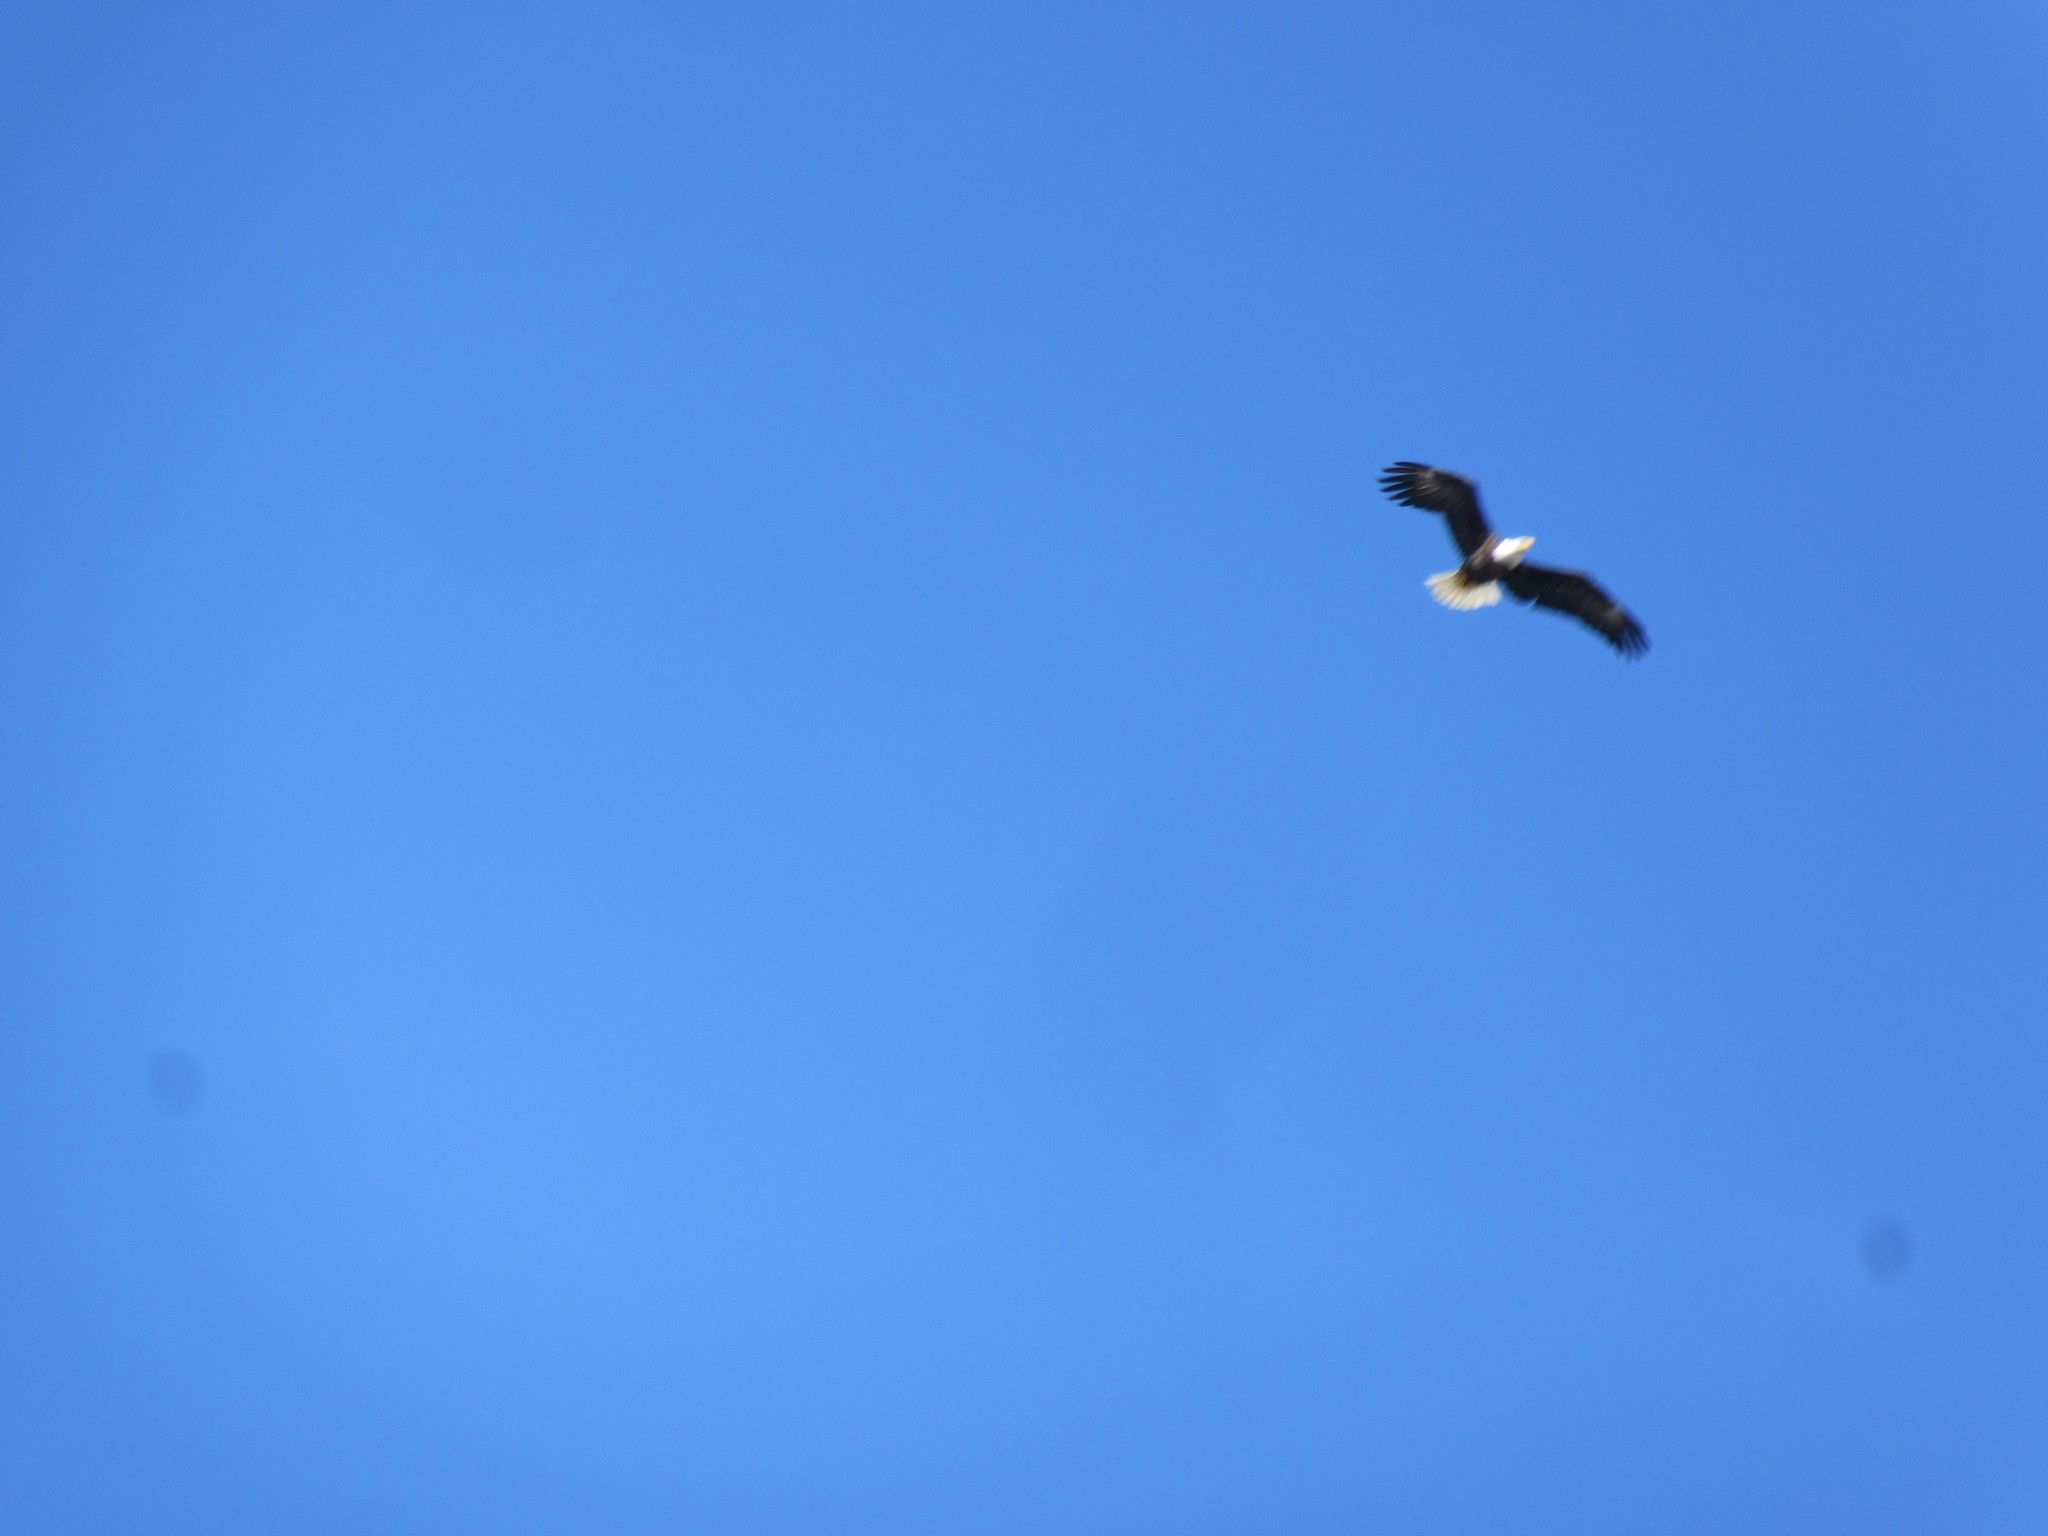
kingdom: Animalia
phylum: Chordata
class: Aves
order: Accipitriformes
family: Accipitridae
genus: Haliaeetus
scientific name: Haliaeetus leucocephalus
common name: Bald eagle
